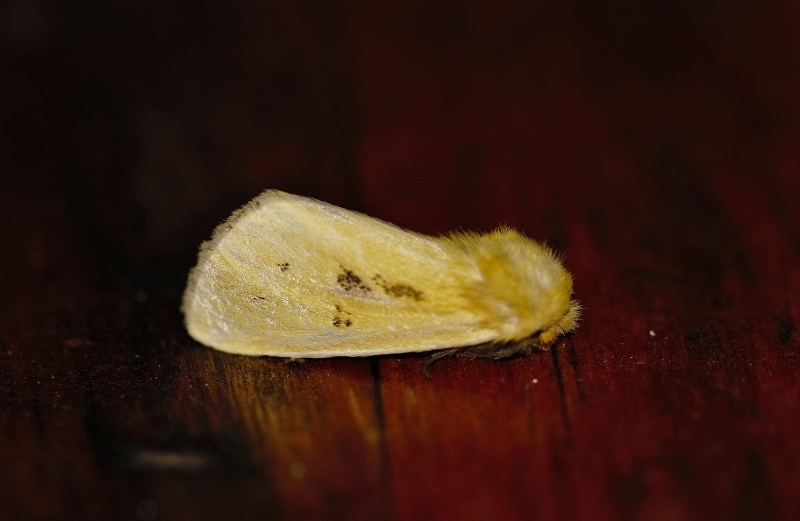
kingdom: Animalia
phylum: Arthropoda
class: Insecta
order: Lepidoptera
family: Notodontidae
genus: Antheua
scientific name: Antheua tricolor
